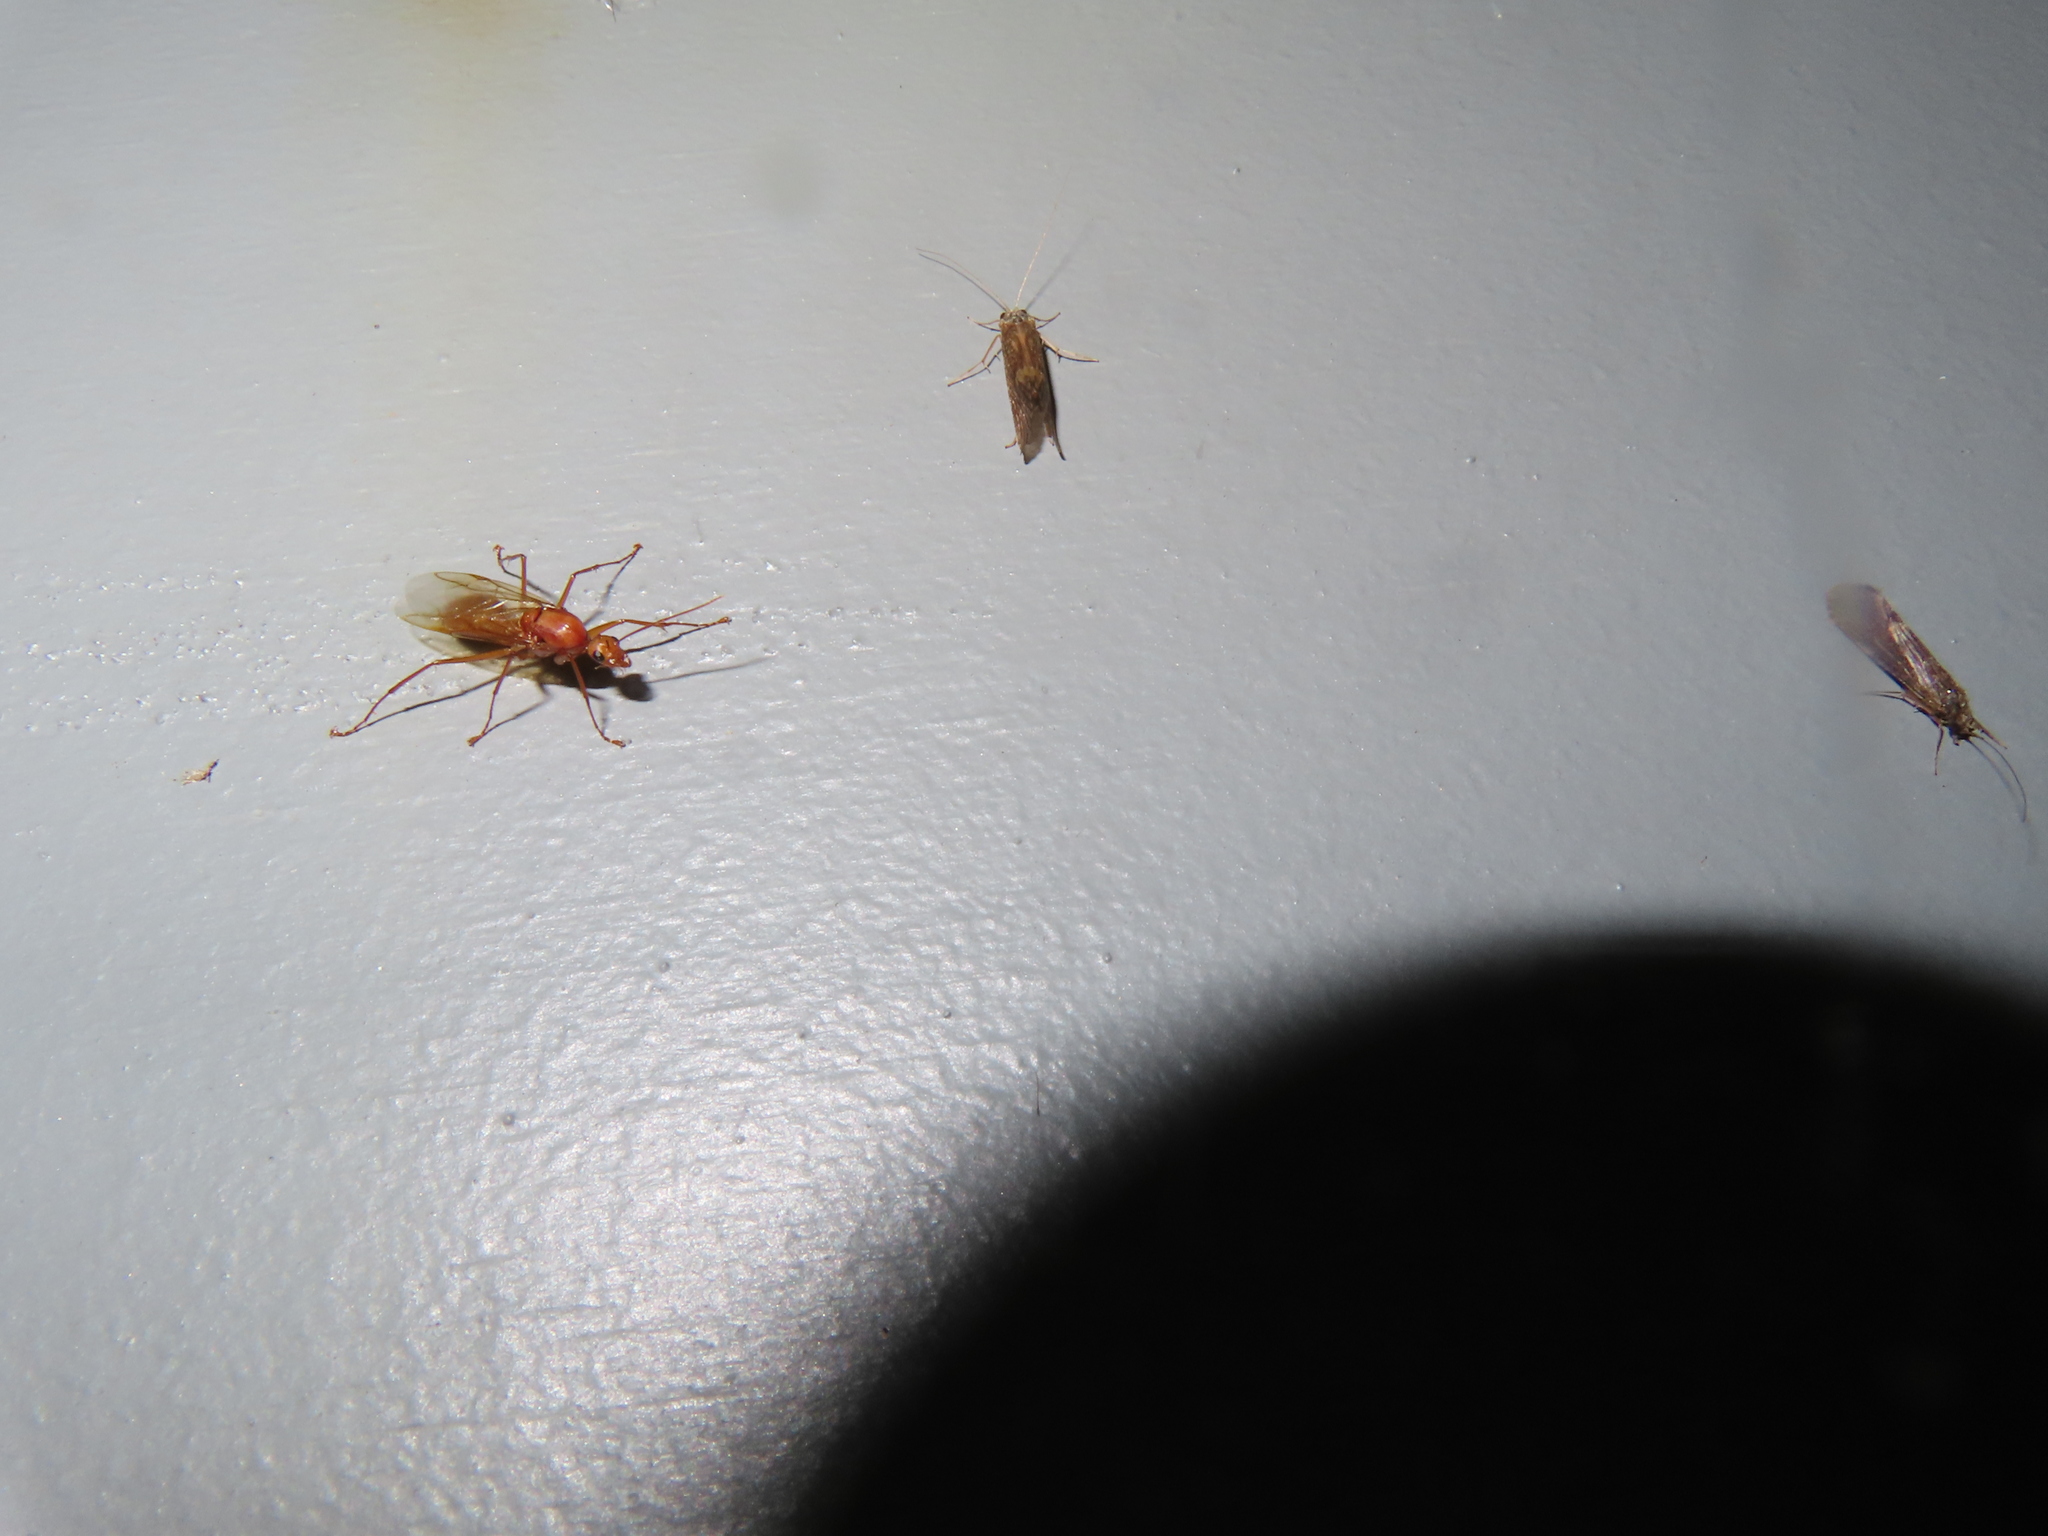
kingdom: Animalia
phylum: Arthropoda
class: Insecta
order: Hymenoptera
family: Formicidae
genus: Camponotus
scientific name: Camponotus castaneus
